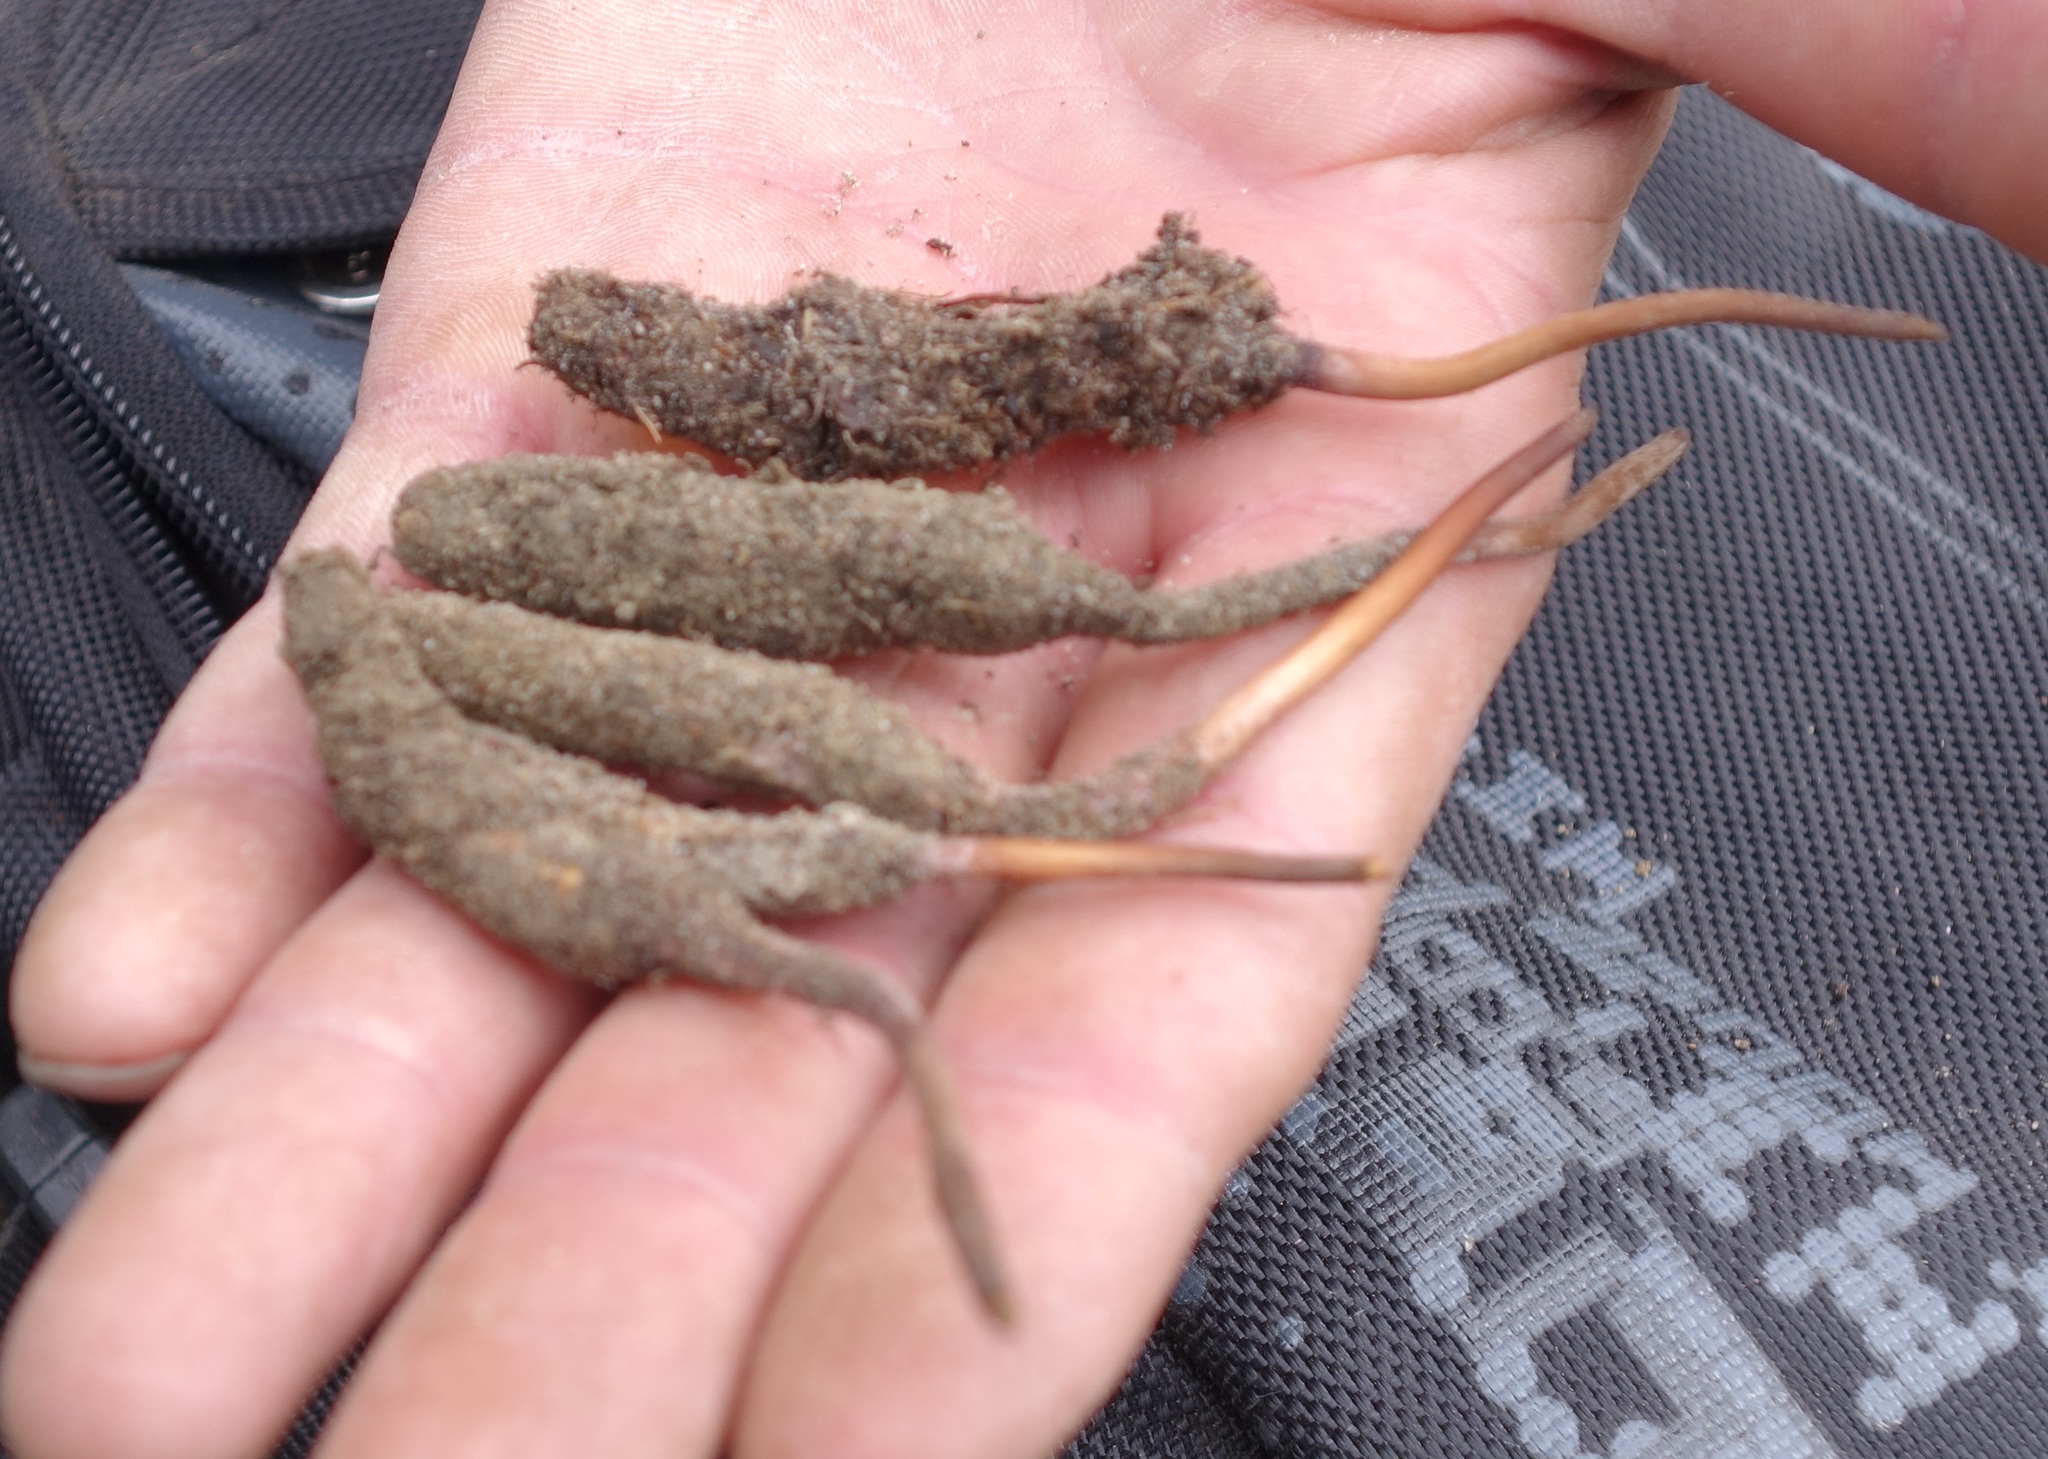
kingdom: Fungi
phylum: Ascomycota
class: Sordariomycetes
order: Hypocreales
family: Ophiocordycipitaceae
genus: Ophiocordyceps
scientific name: Ophiocordyceps sinensis
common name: Caterpillar fungus
